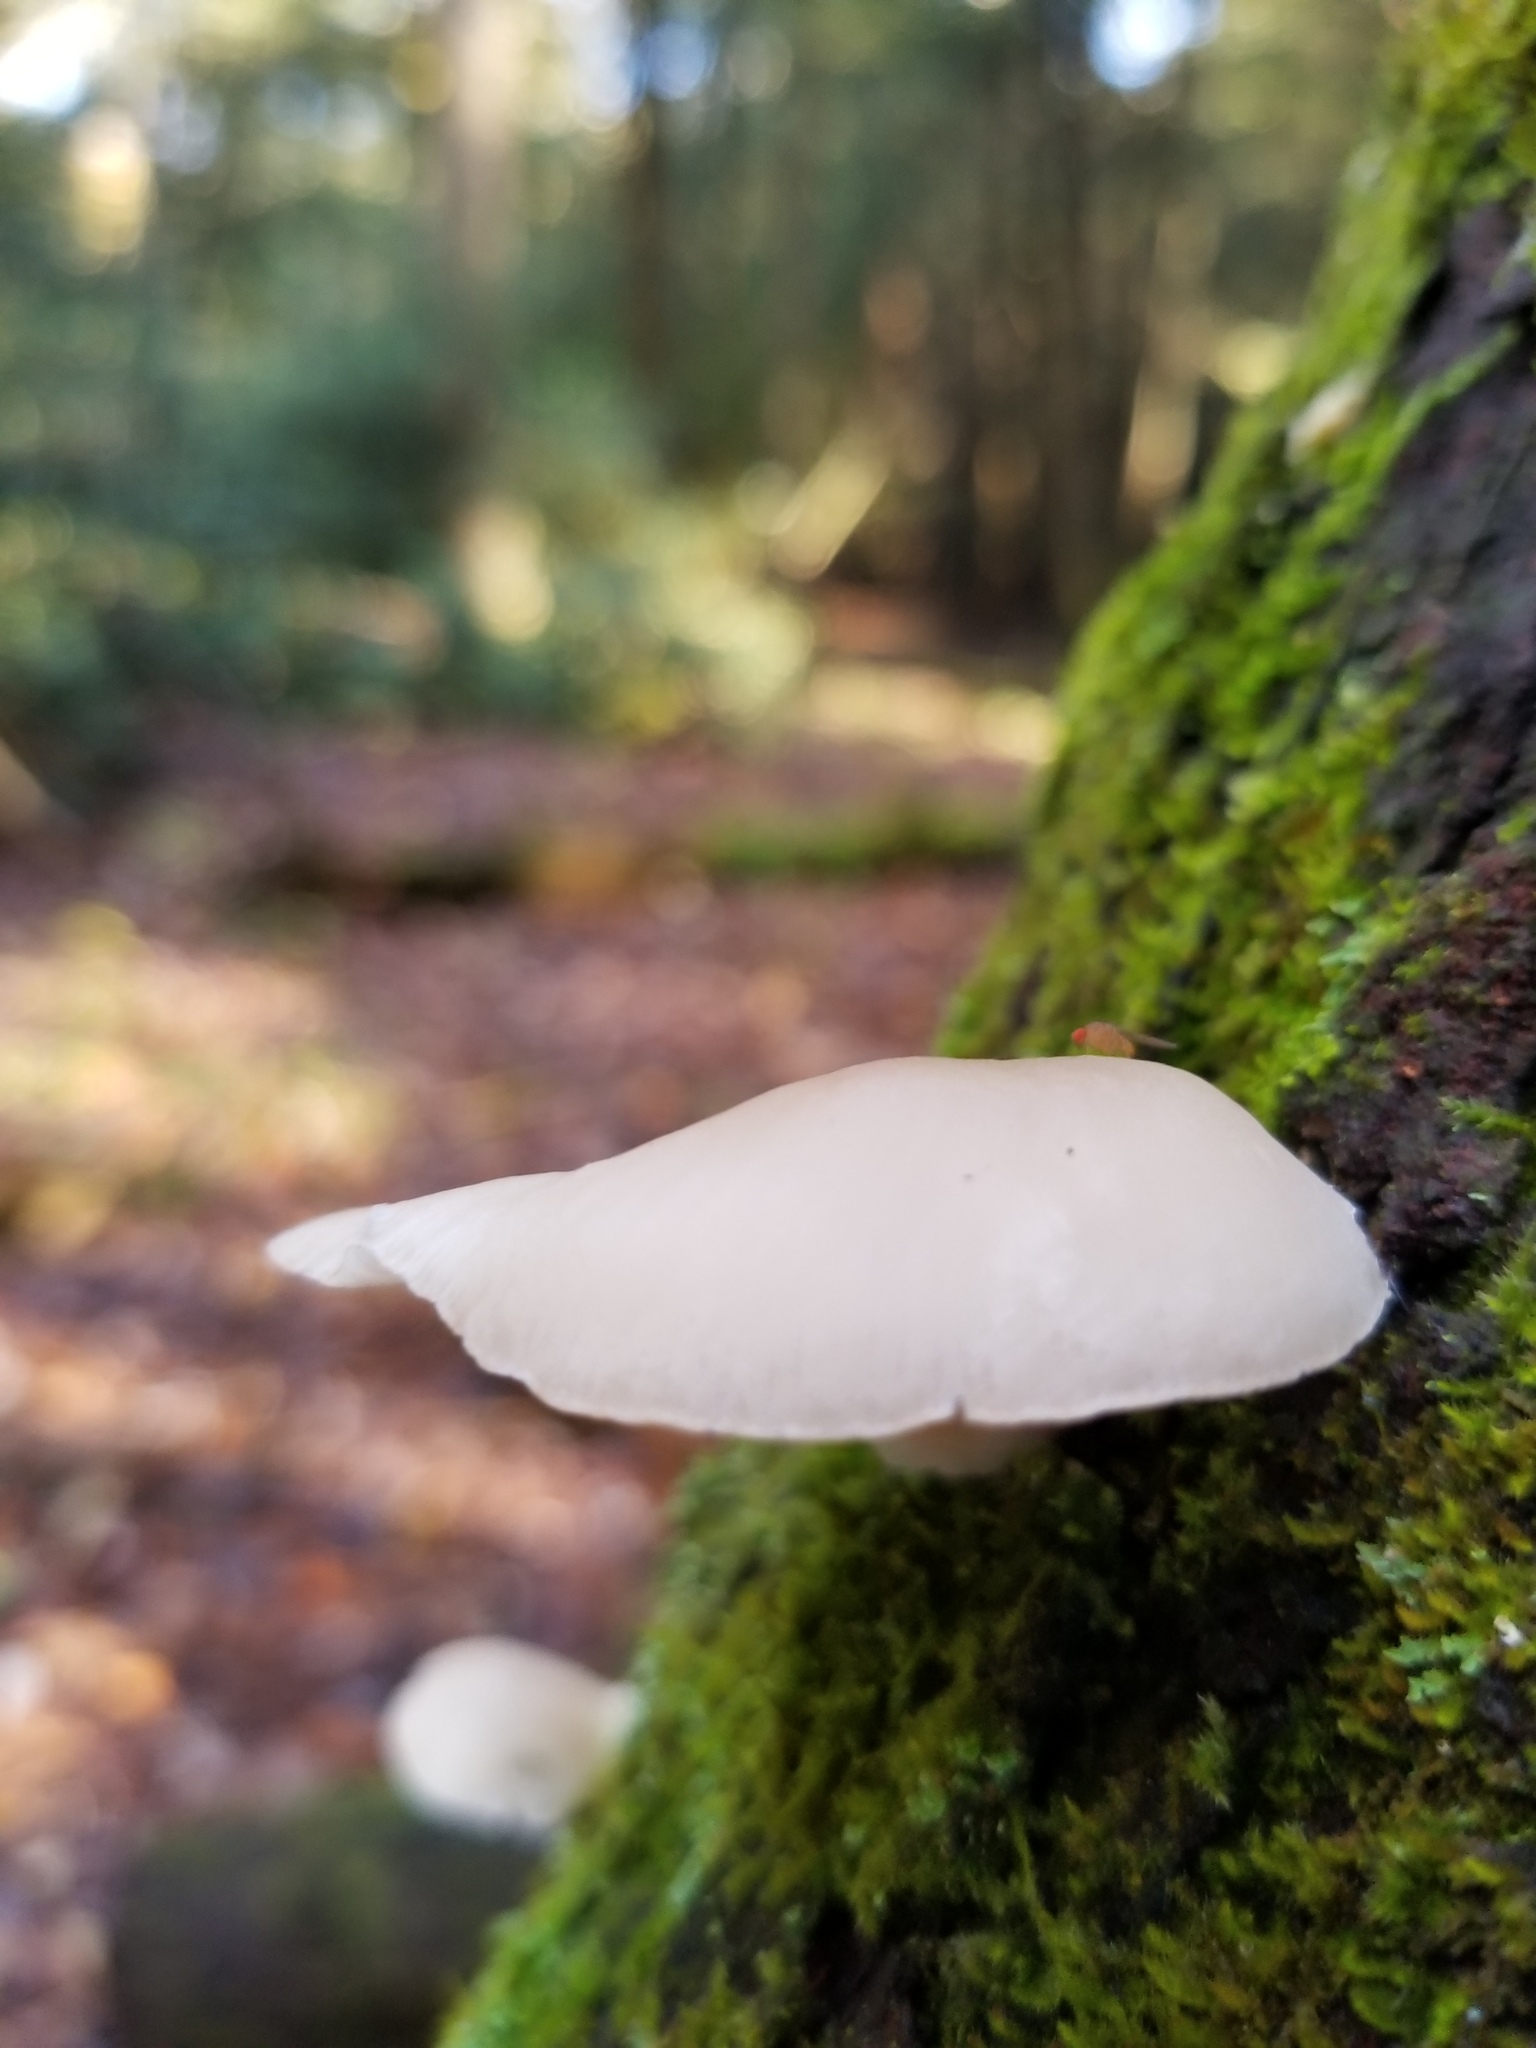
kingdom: Fungi
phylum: Basidiomycota
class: Agaricomycetes
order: Agaricales
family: Marasmiaceae
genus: Pleurocybella
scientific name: Pleurocybella porrigens
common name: Angel's wings
